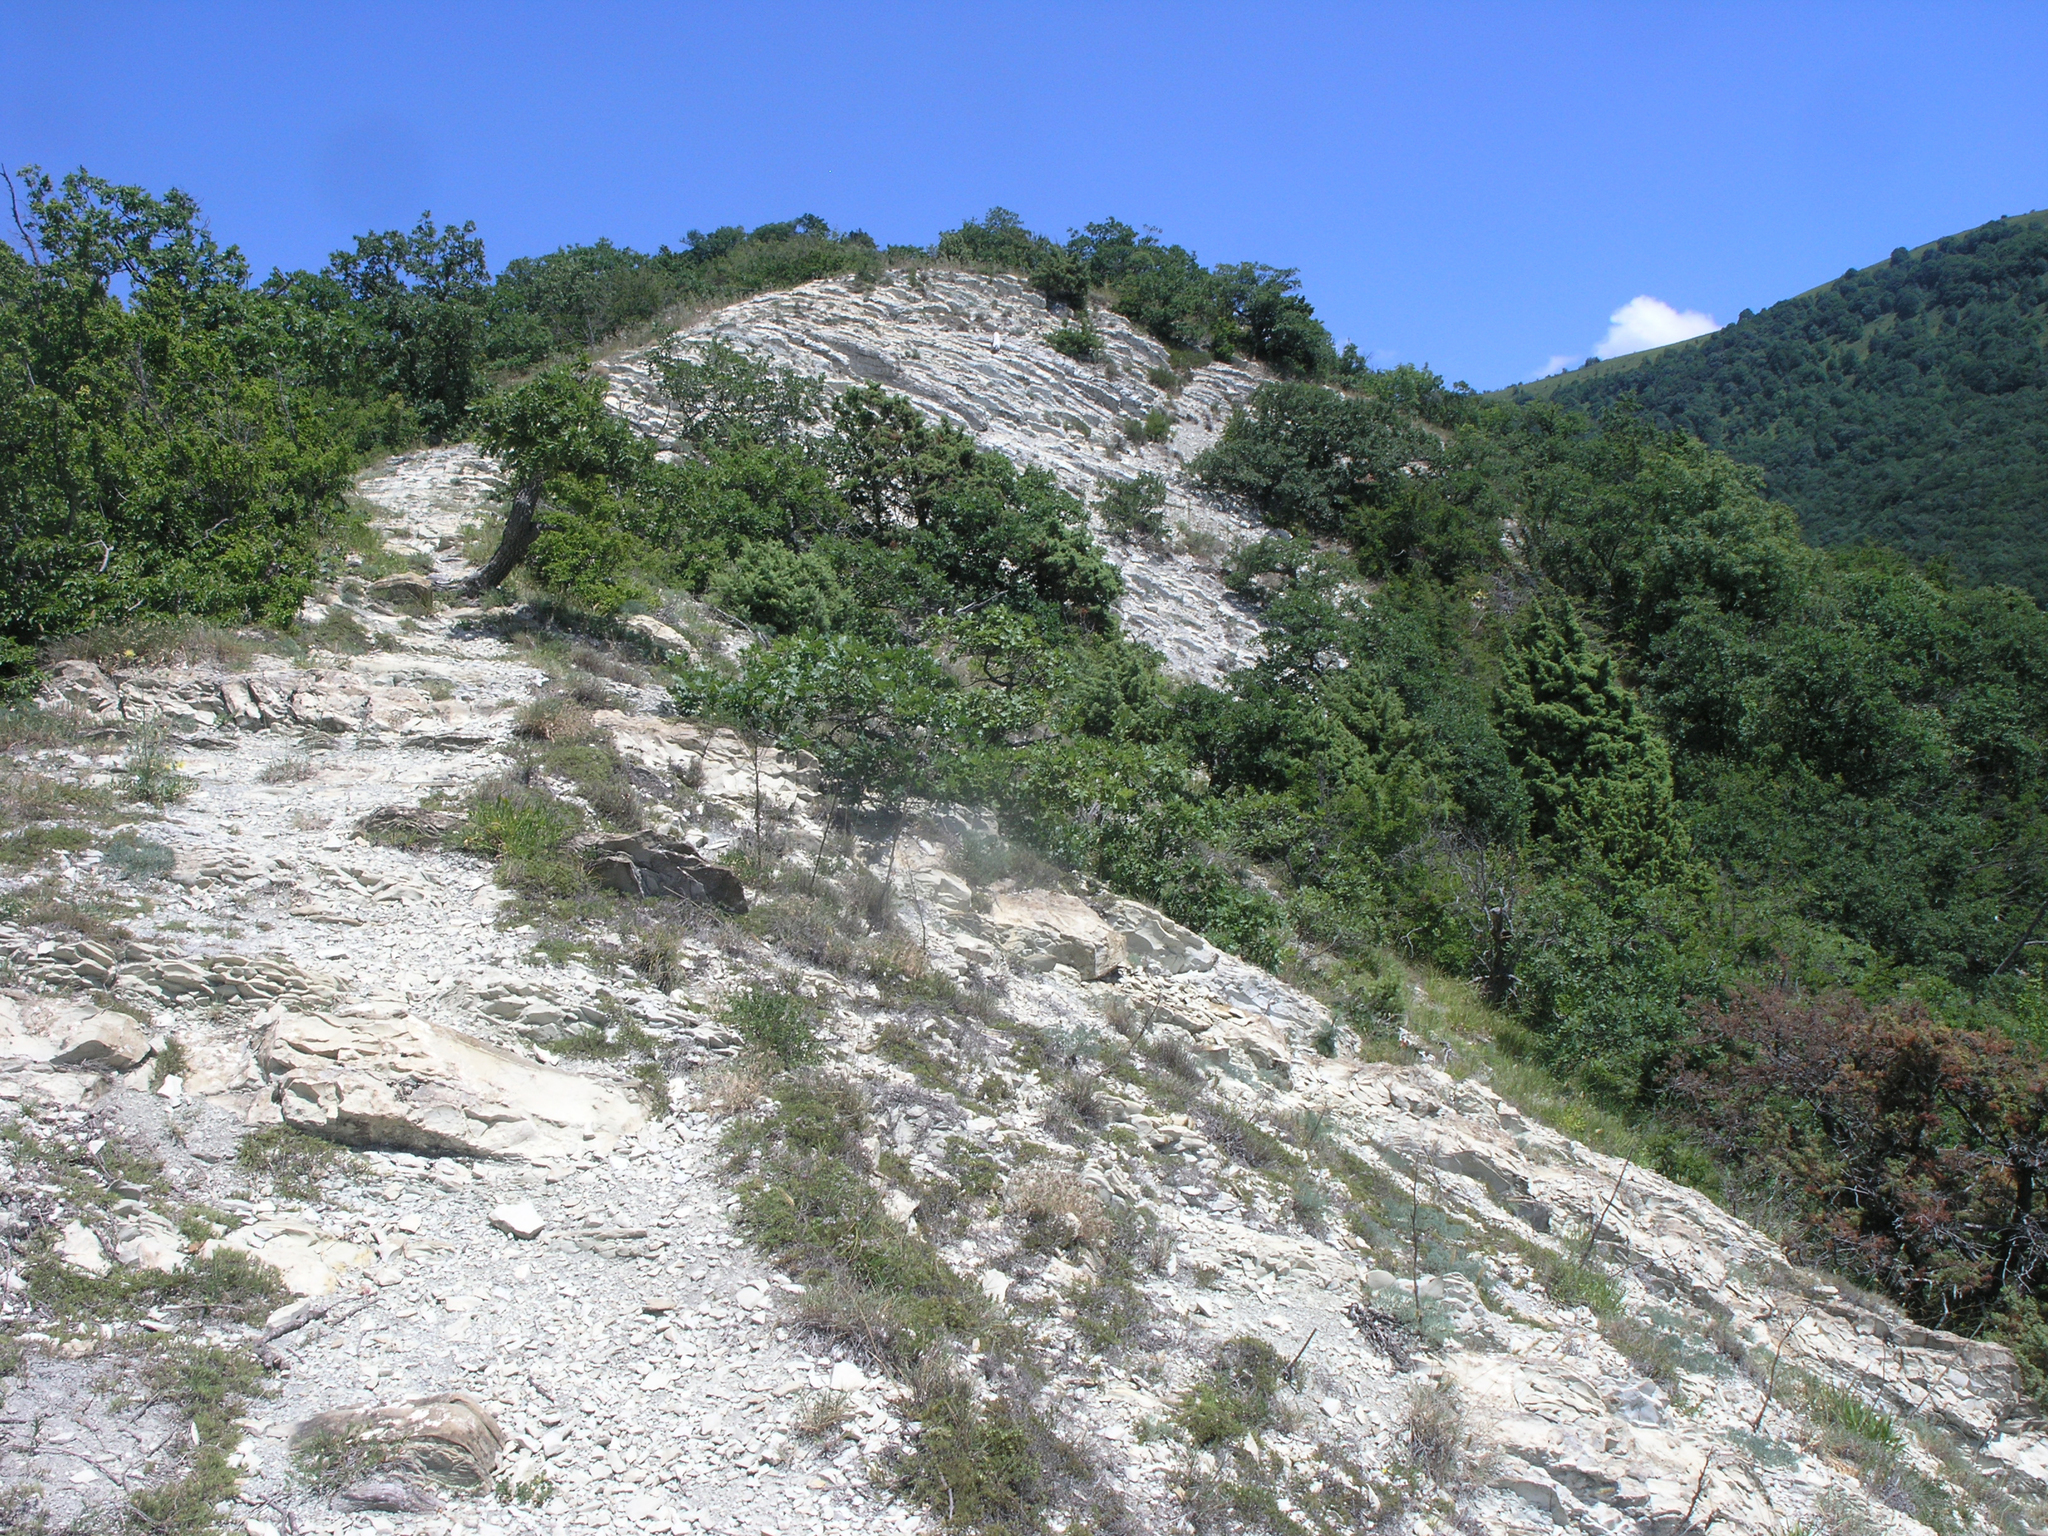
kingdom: Plantae
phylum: Tracheophyta
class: Magnoliopsida
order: Fagales
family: Fagaceae
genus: Quercus
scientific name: Quercus pubescens
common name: Downy oak
